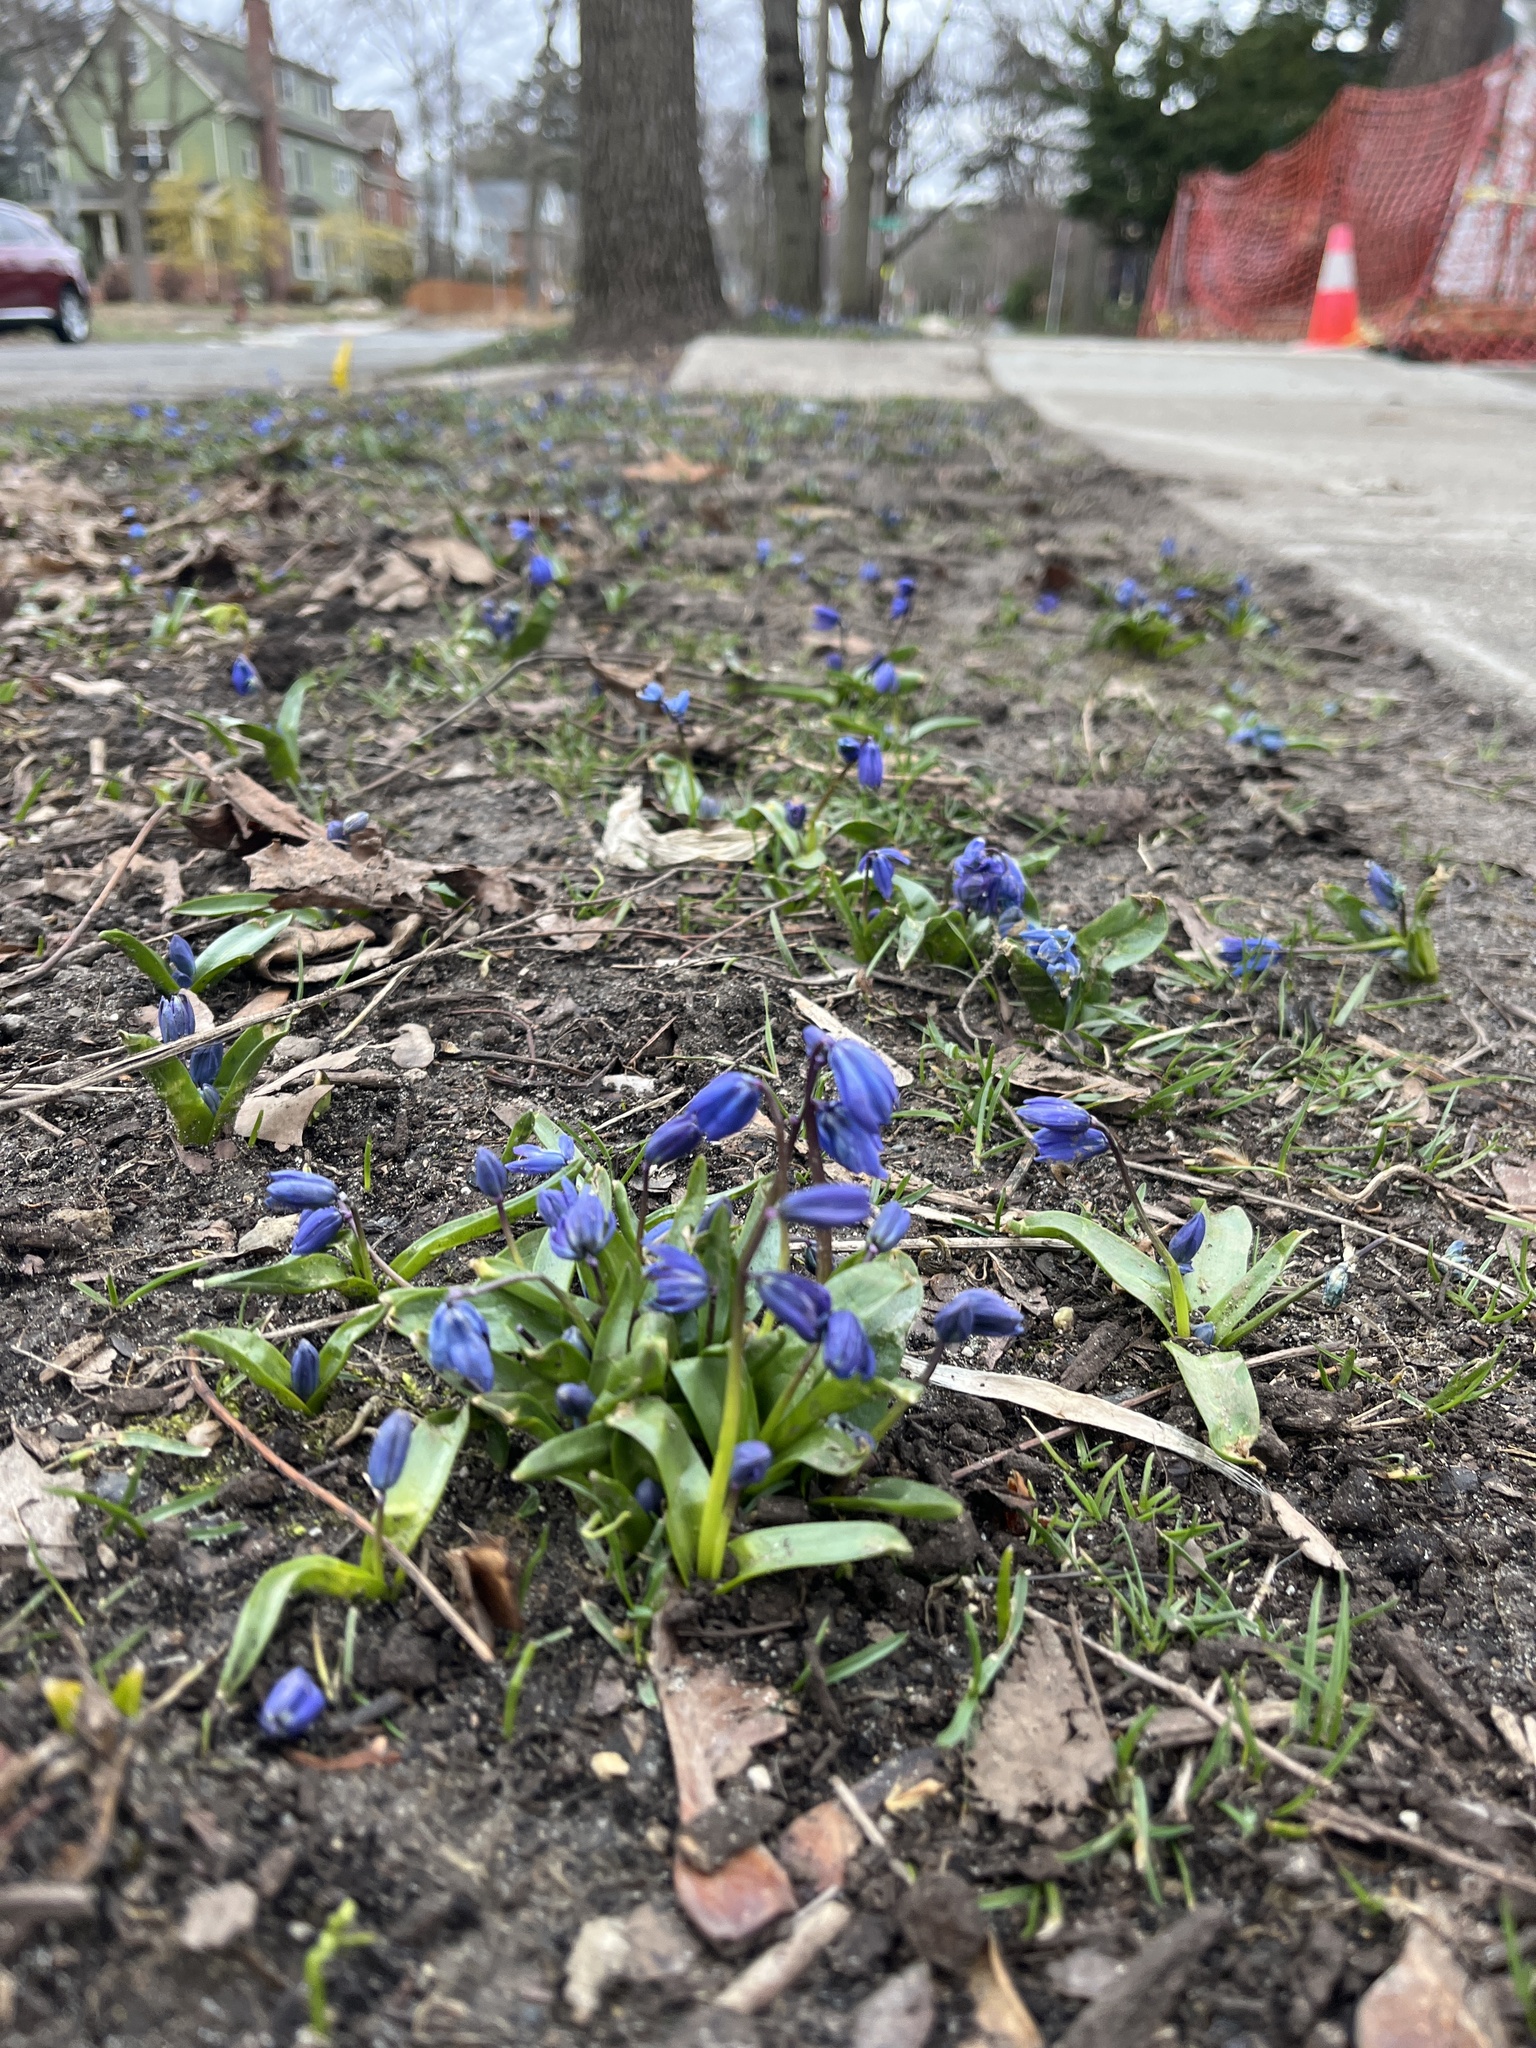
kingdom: Plantae
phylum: Tracheophyta
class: Liliopsida
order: Asparagales
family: Asparagaceae
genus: Scilla
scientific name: Scilla siberica
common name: Siberian squill
